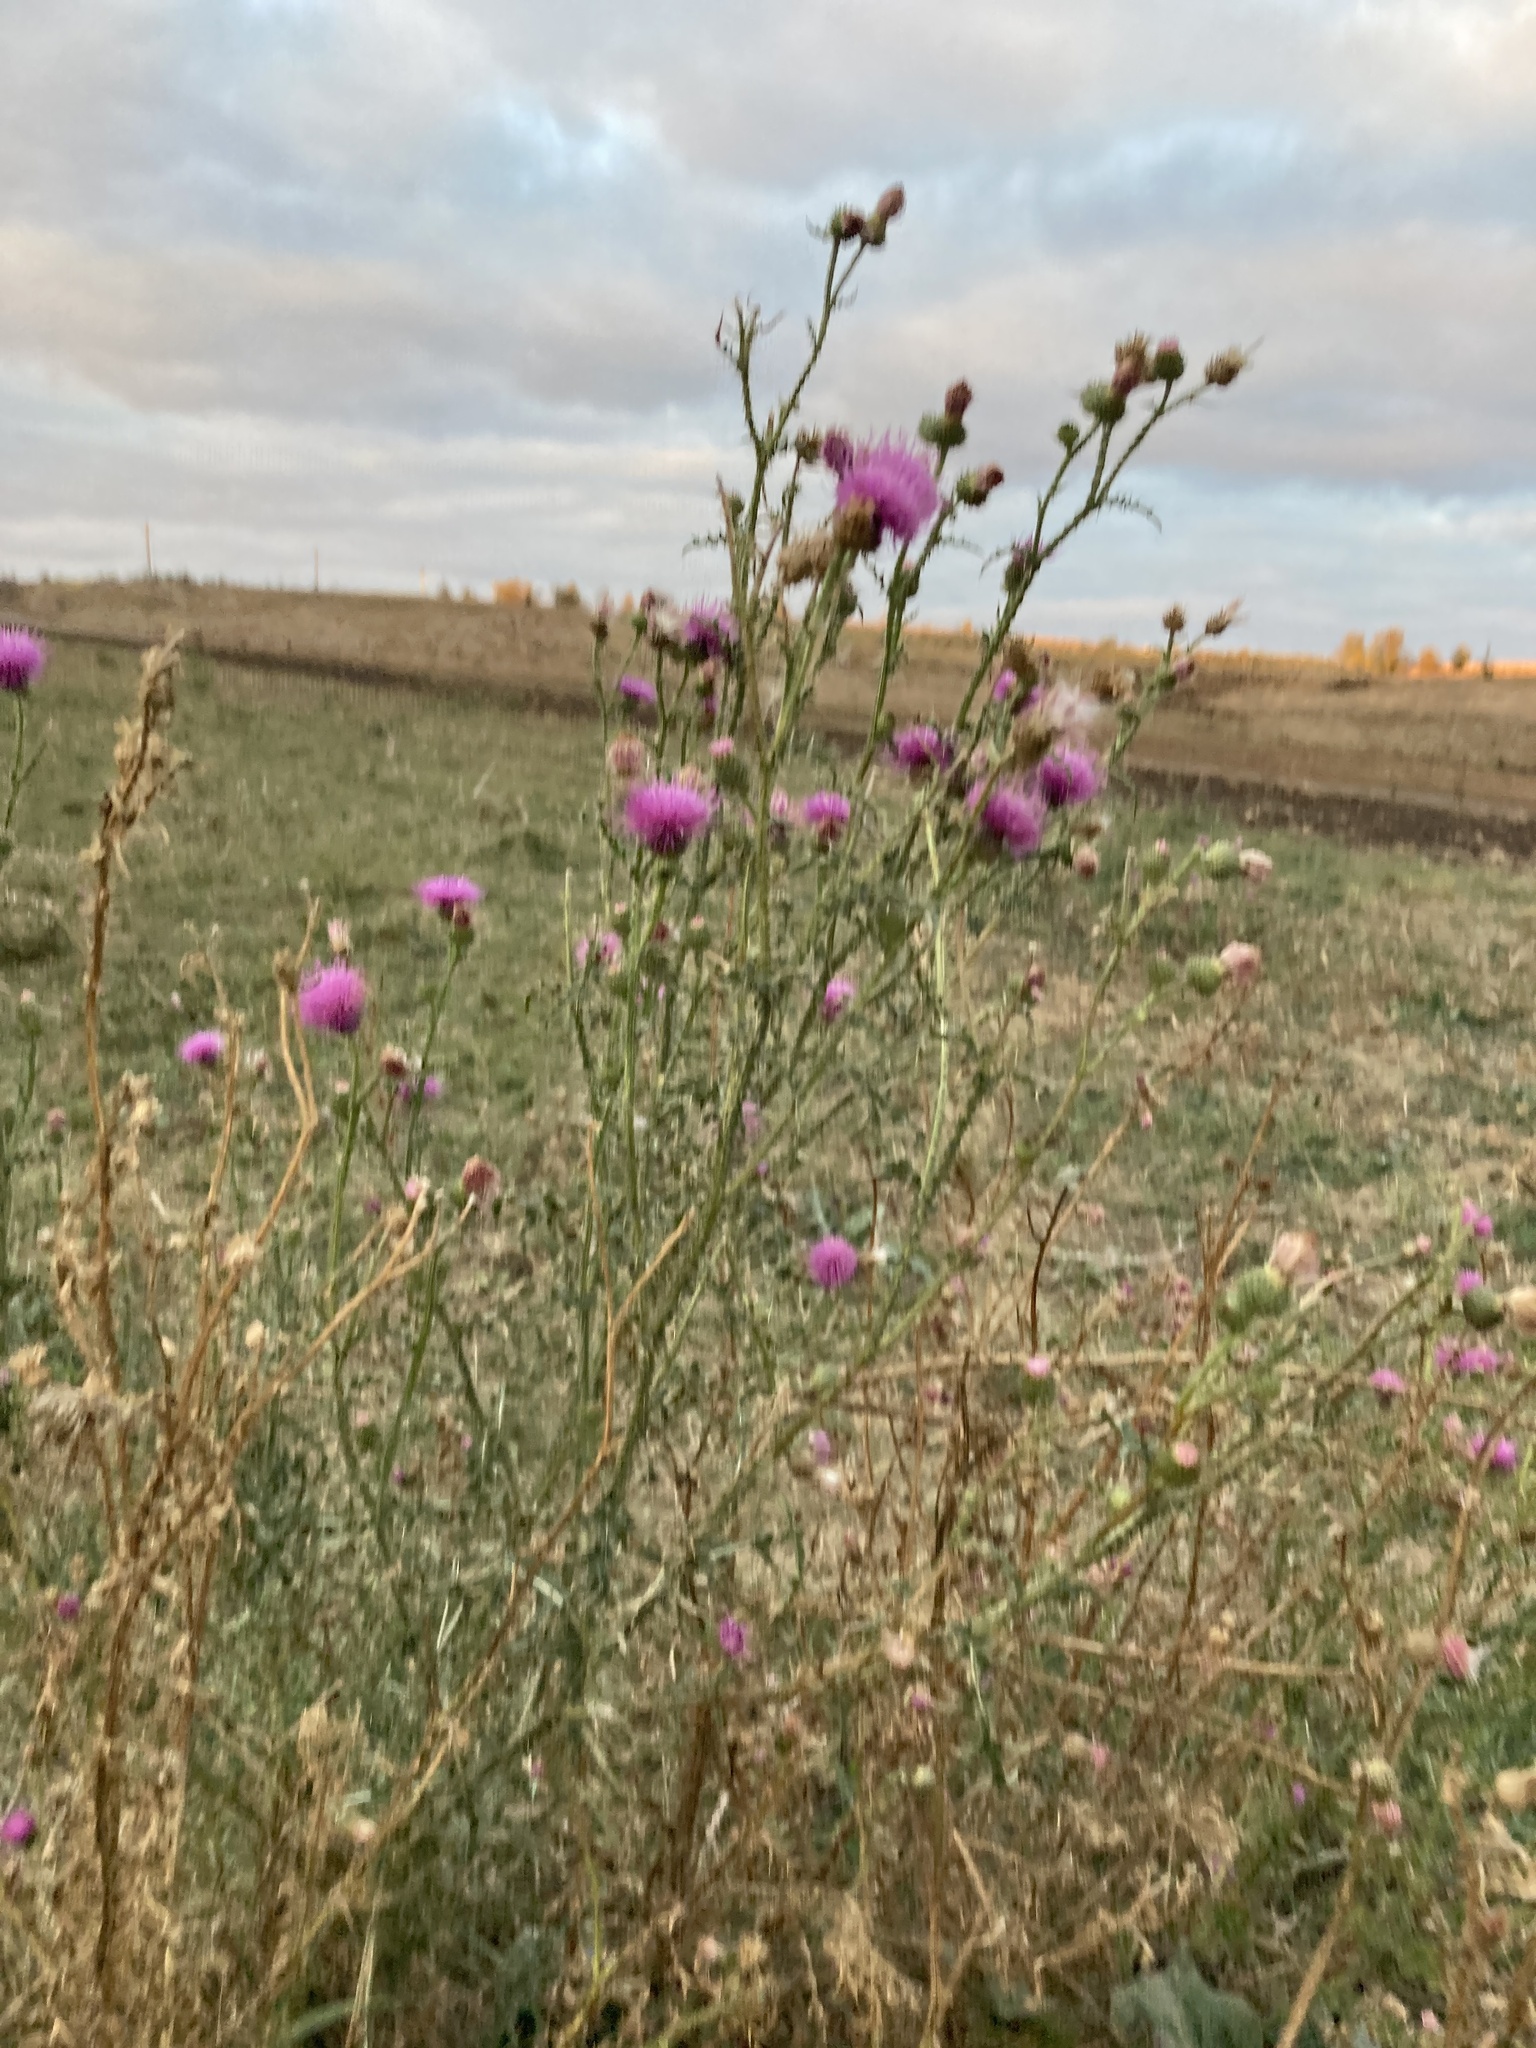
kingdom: Plantae
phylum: Tracheophyta
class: Magnoliopsida
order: Asterales
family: Asteraceae
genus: Carduus
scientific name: Carduus acanthoides
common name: Plumeless thistle
